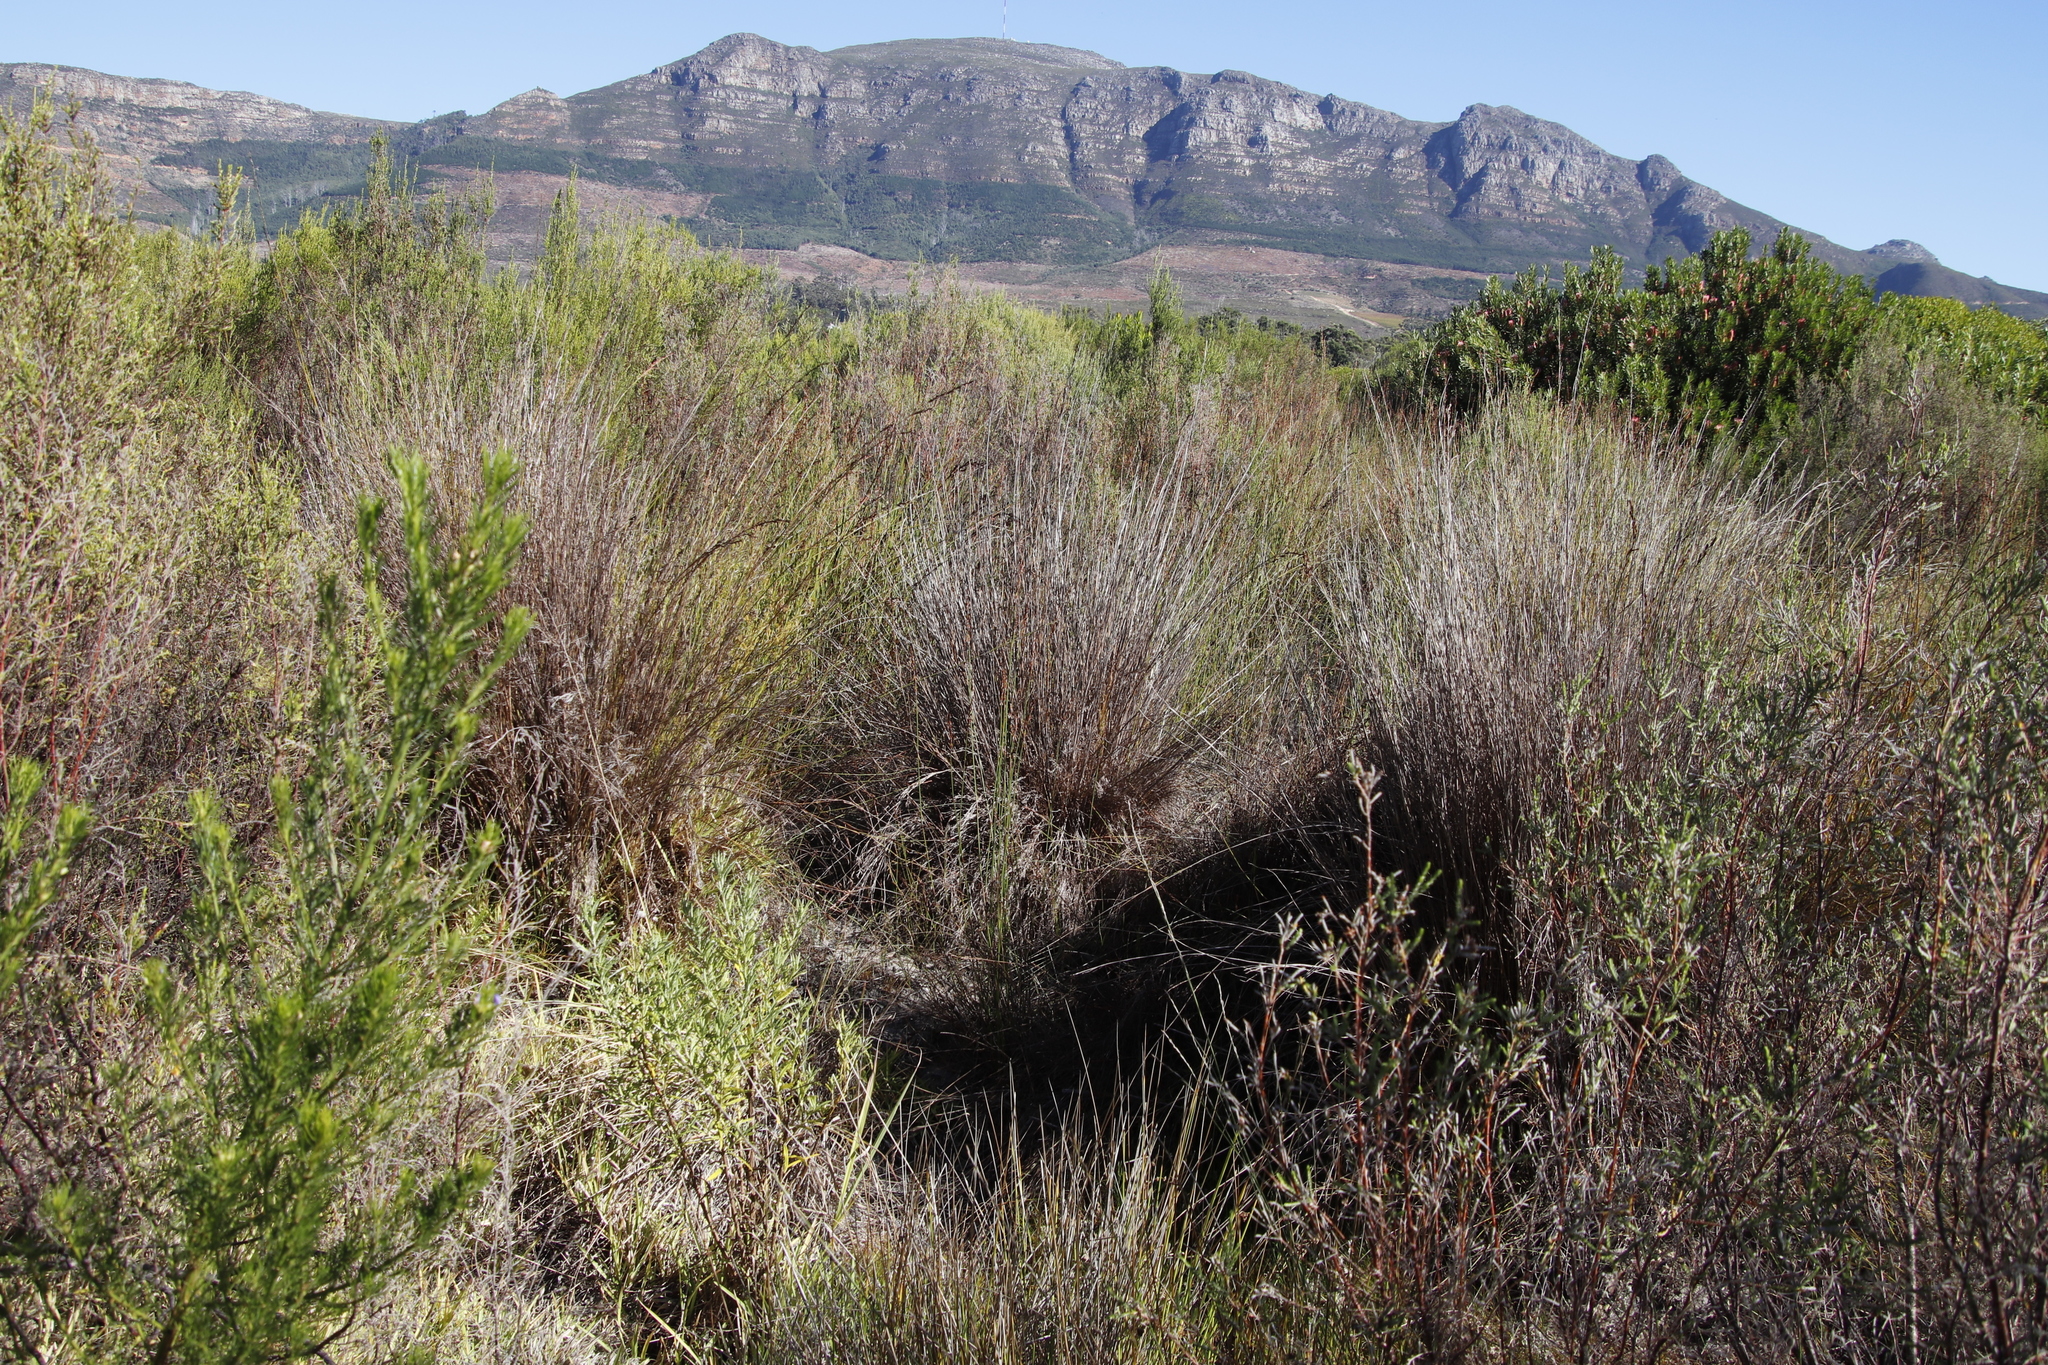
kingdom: Plantae
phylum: Tracheophyta
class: Liliopsida
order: Poales
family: Restionaceae
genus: Restio
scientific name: Restio tetragonus
